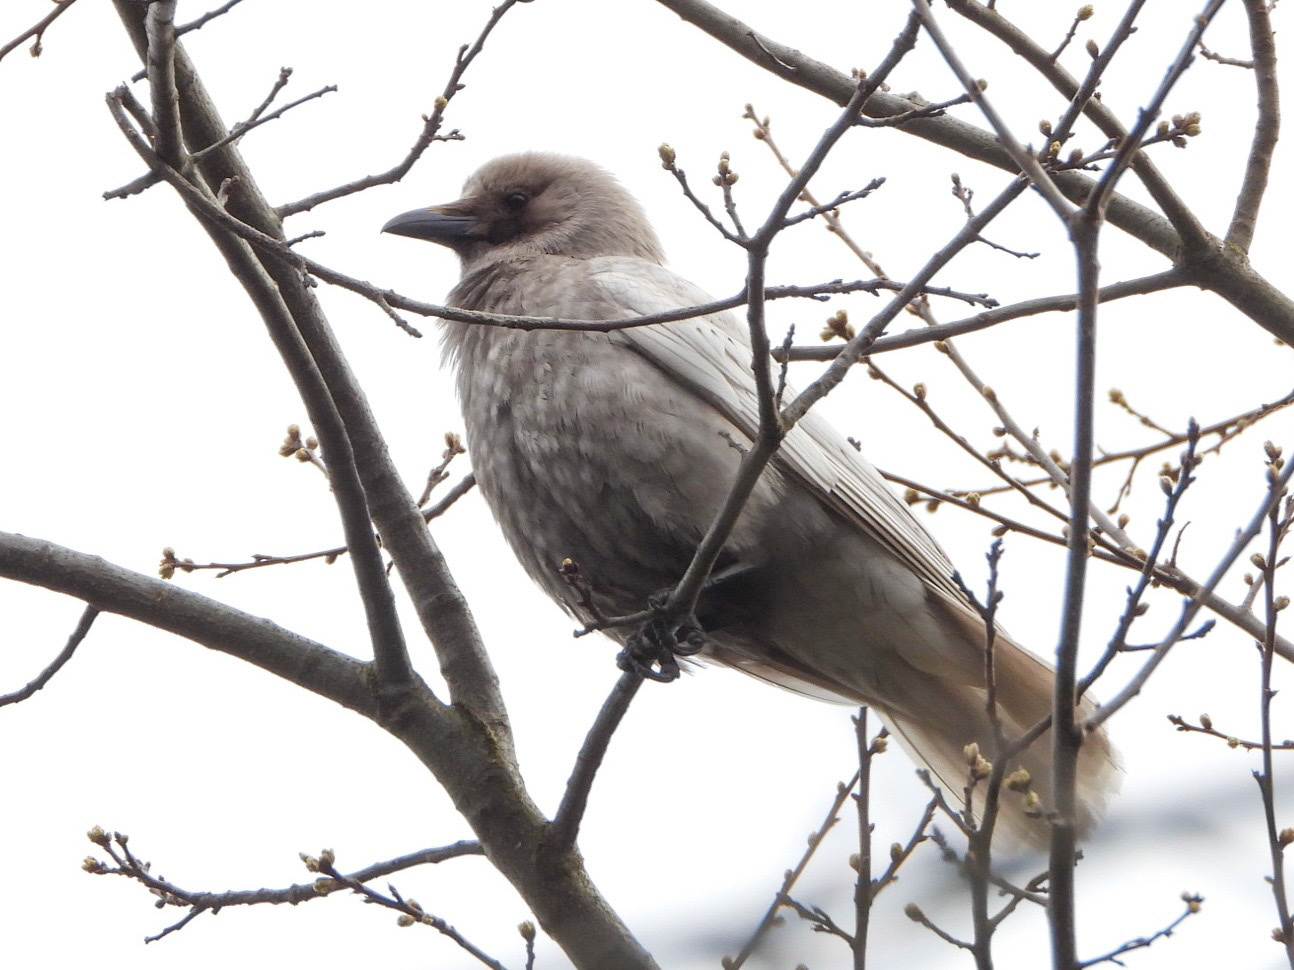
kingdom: Animalia
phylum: Chordata
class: Aves
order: Passeriformes
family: Corvidae
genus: Corvus
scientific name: Corvus brachyrhynchos
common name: American crow
